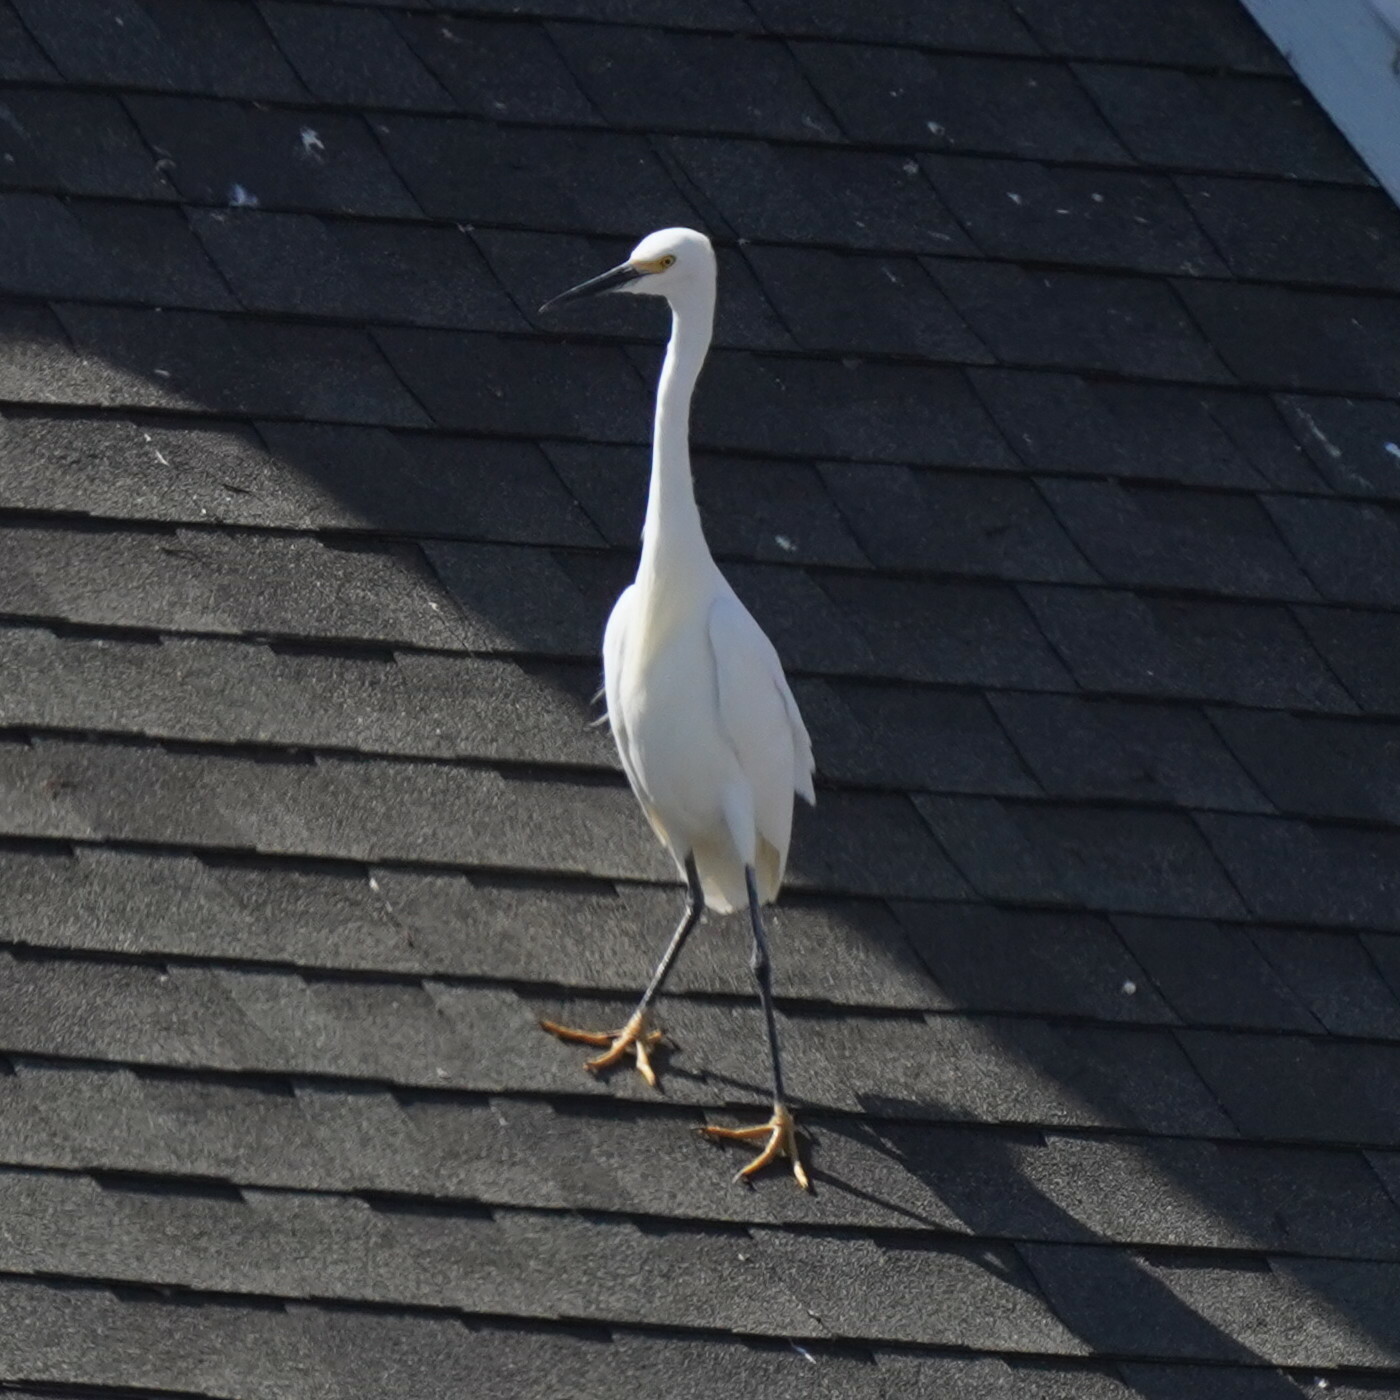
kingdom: Animalia
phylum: Chordata
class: Aves
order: Pelecaniformes
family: Ardeidae
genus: Egretta
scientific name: Egretta thula
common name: Snowy egret
